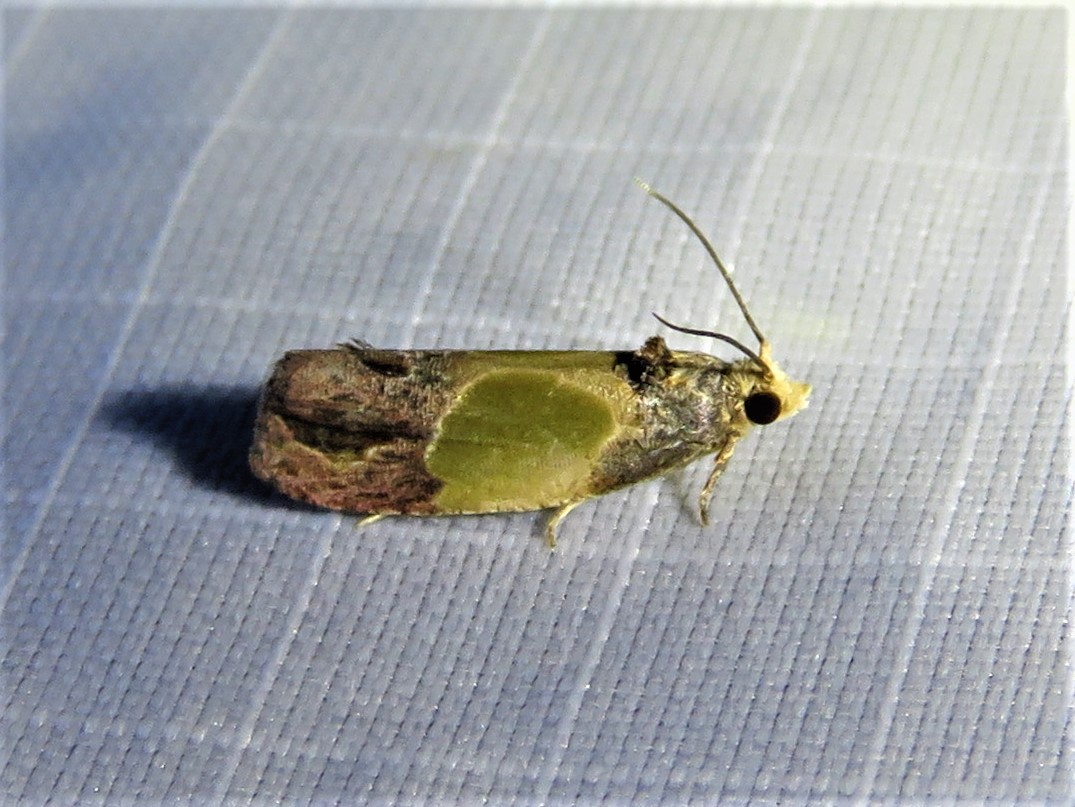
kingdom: Animalia
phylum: Arthropoda
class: Insecta
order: Lepidoptera
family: Tortricidae
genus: Eumarozia
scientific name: Eumarozia malachitana
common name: Sculptured moth
